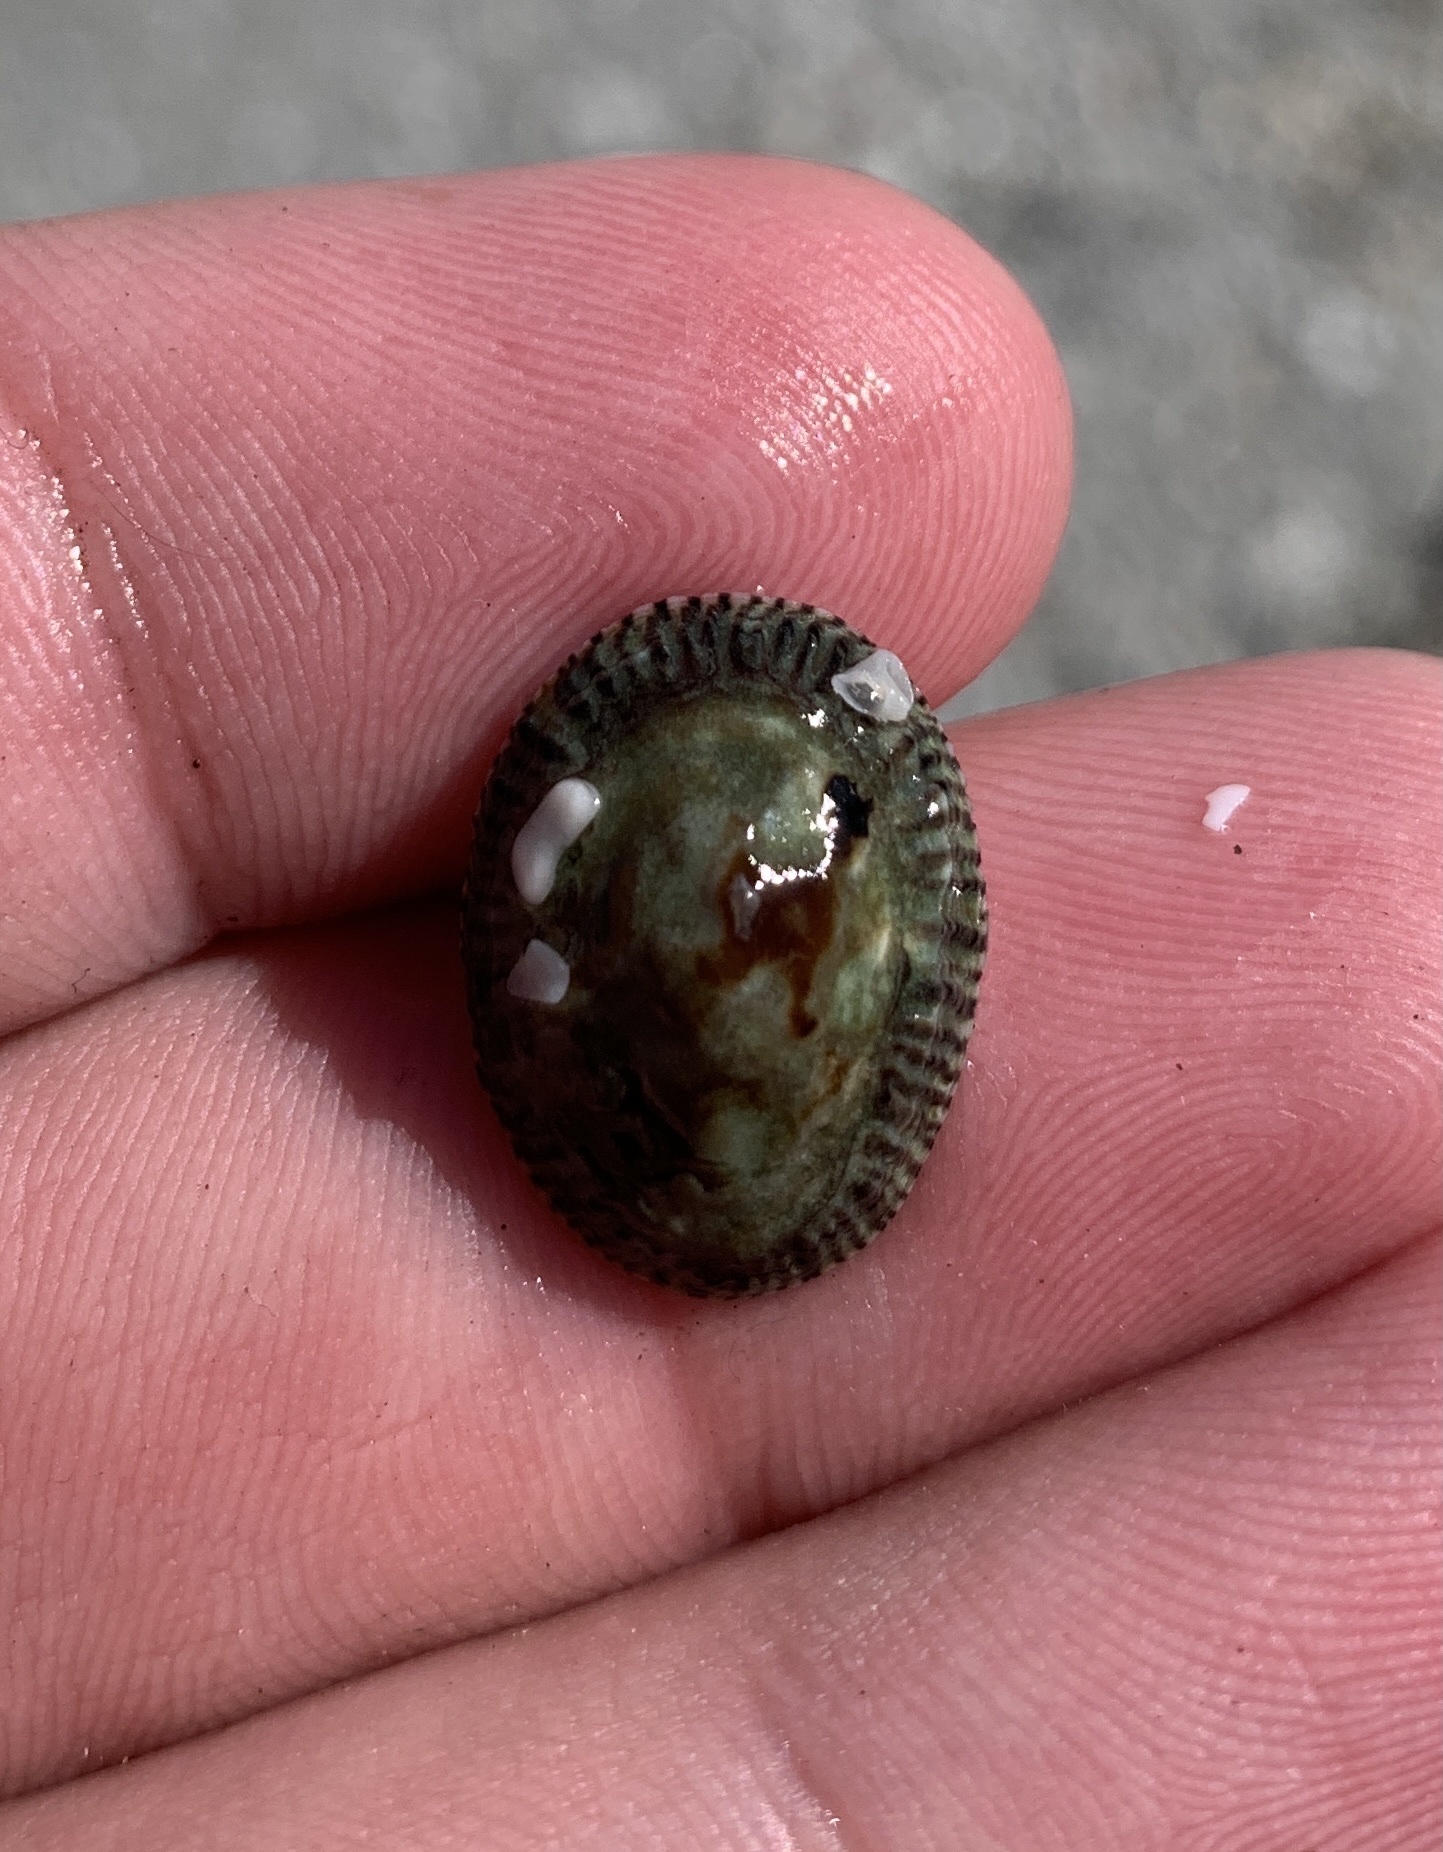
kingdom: Animalia
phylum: Mollusca
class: Gastropoda
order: Siphonariida
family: Siphonariidae
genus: Siphonaria
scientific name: Siphonaria naufragum
